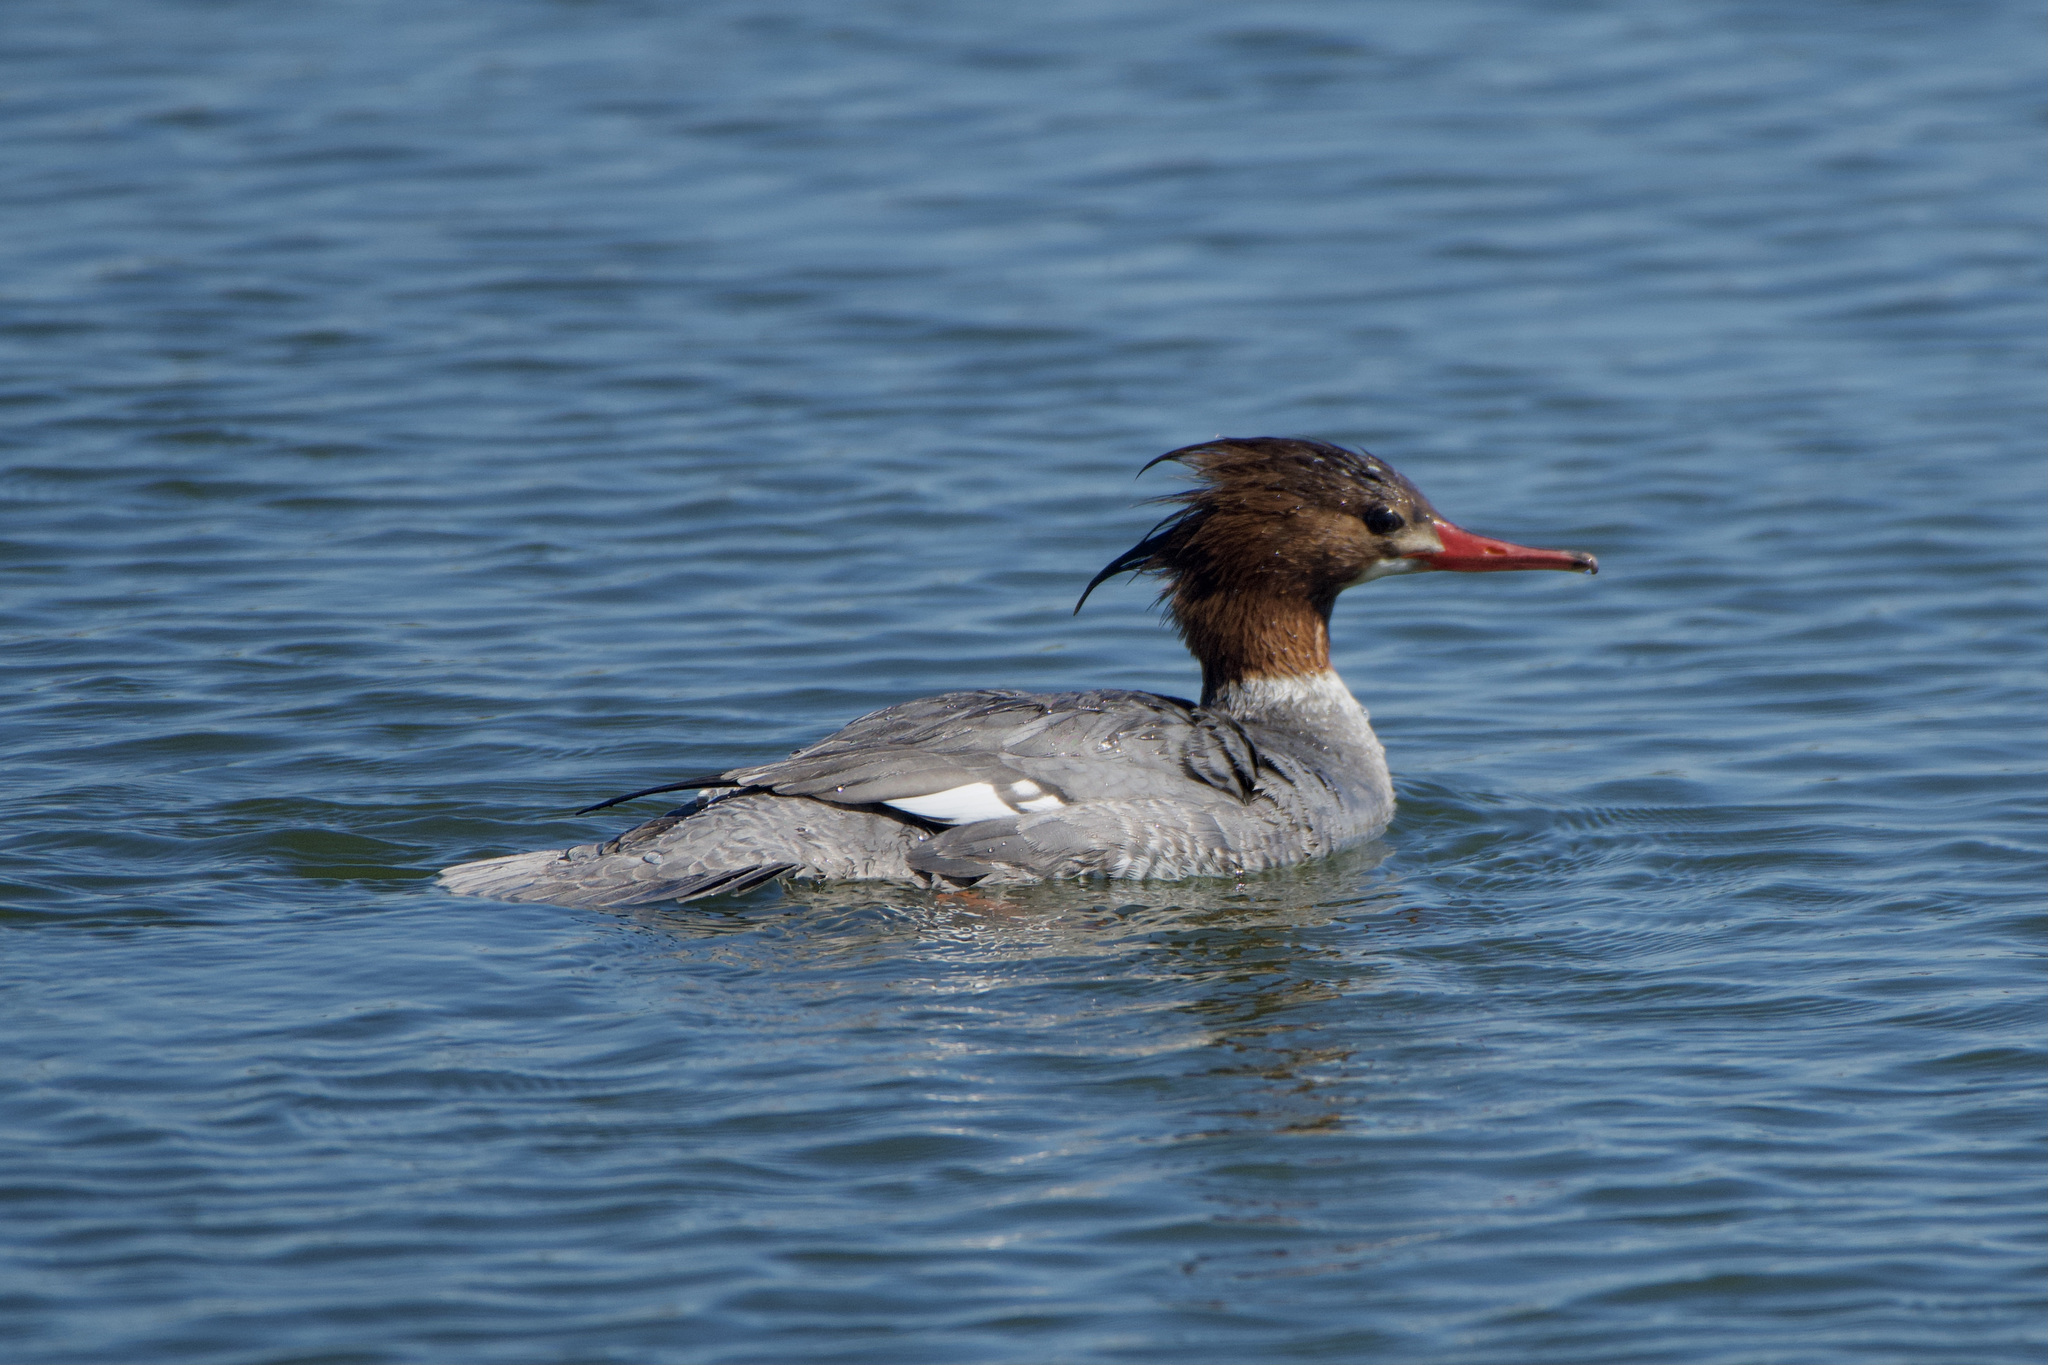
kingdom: Animalia
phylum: Chordata
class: Aves
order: Anseriformes
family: Anatidae
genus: Mergus
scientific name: Mergus merganser
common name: Common merganser
